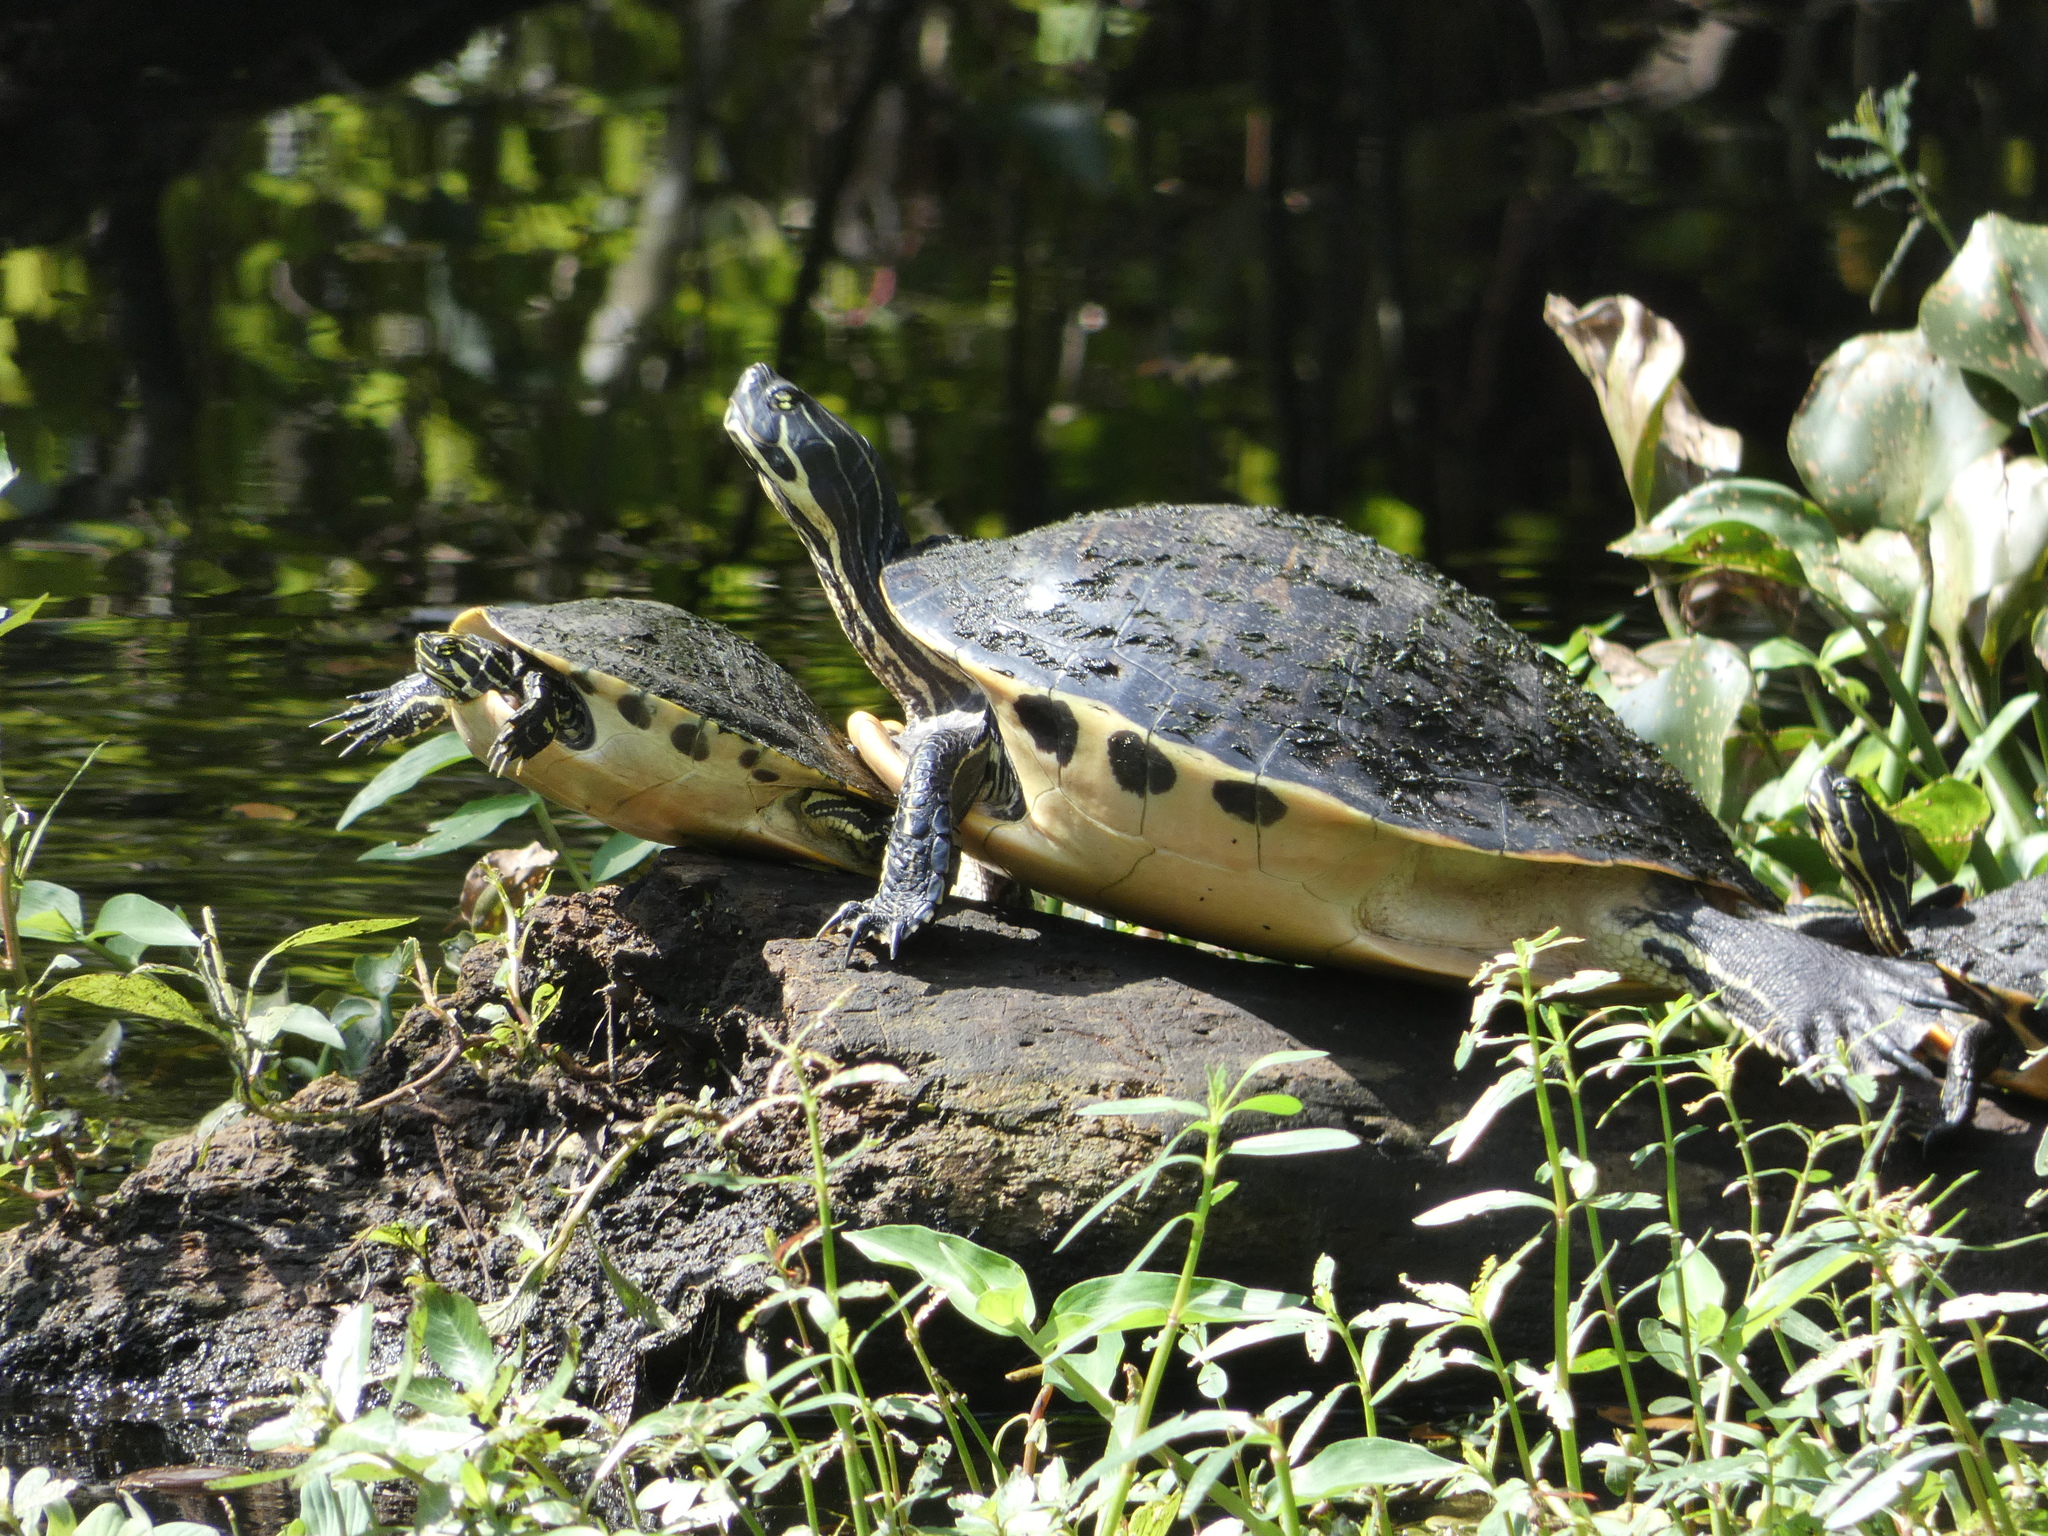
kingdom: Animalia
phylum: Chordata
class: Testudines
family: Emydidae
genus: Pseudemys
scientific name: Pseudemys peninsularis
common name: Peninsula cooter
